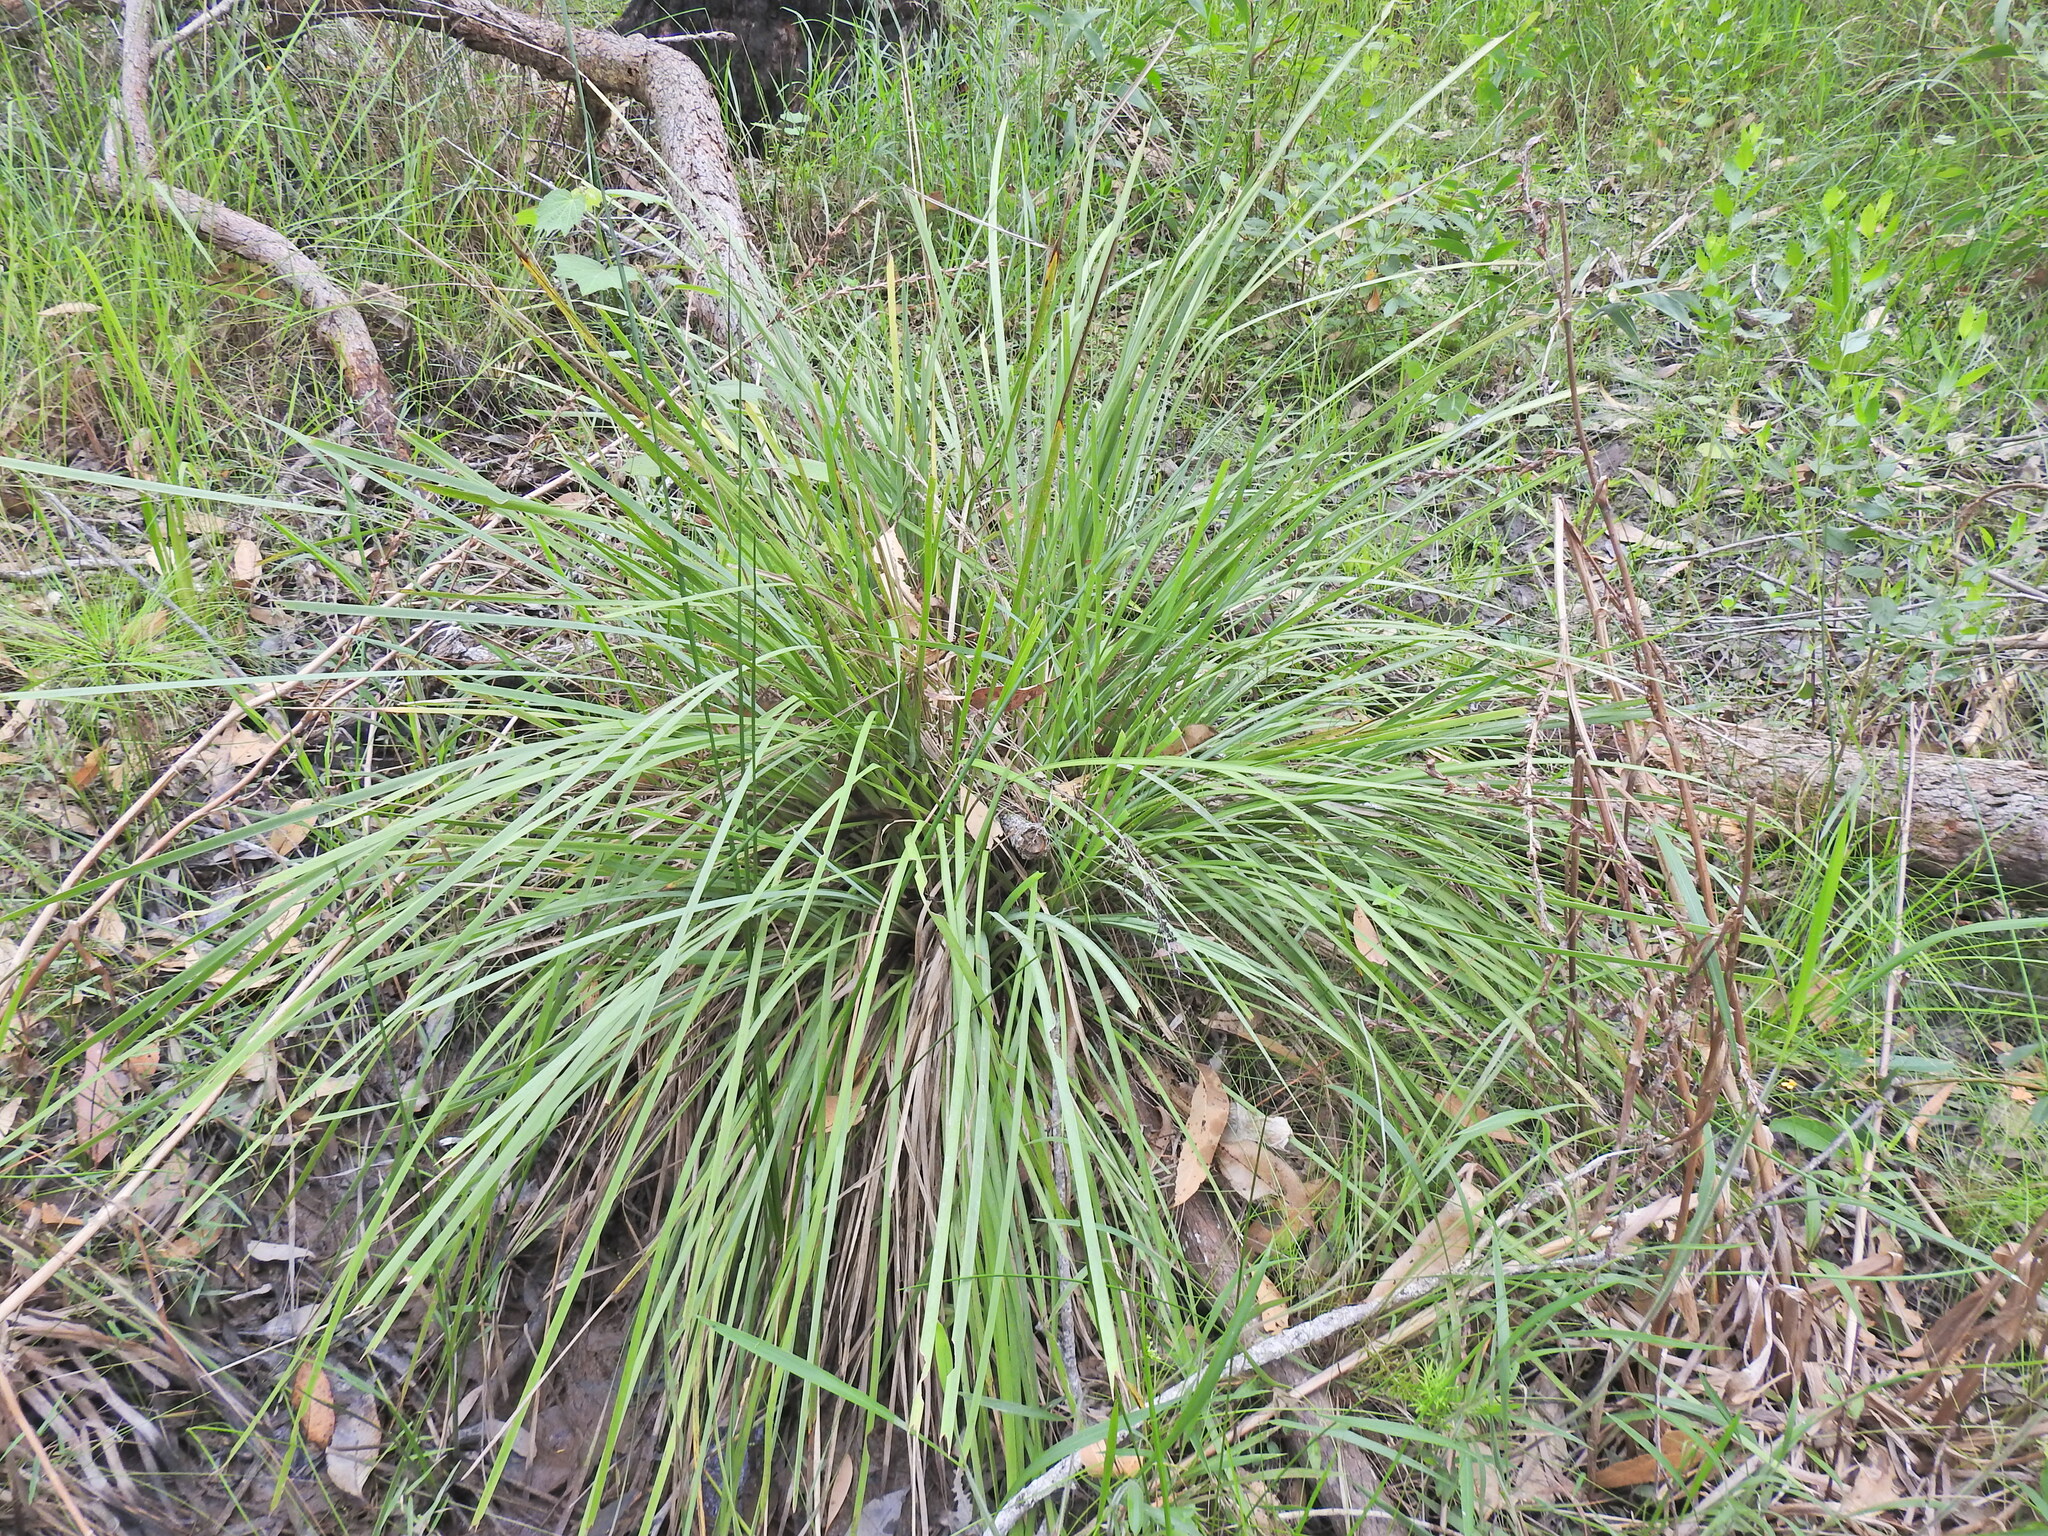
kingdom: Plantae
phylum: Tracheophyta
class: Liliopsida
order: Asparagales
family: Asparagaceae
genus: Lomandra
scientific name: Lomandra longifolia
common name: Longleaf mat-rush
